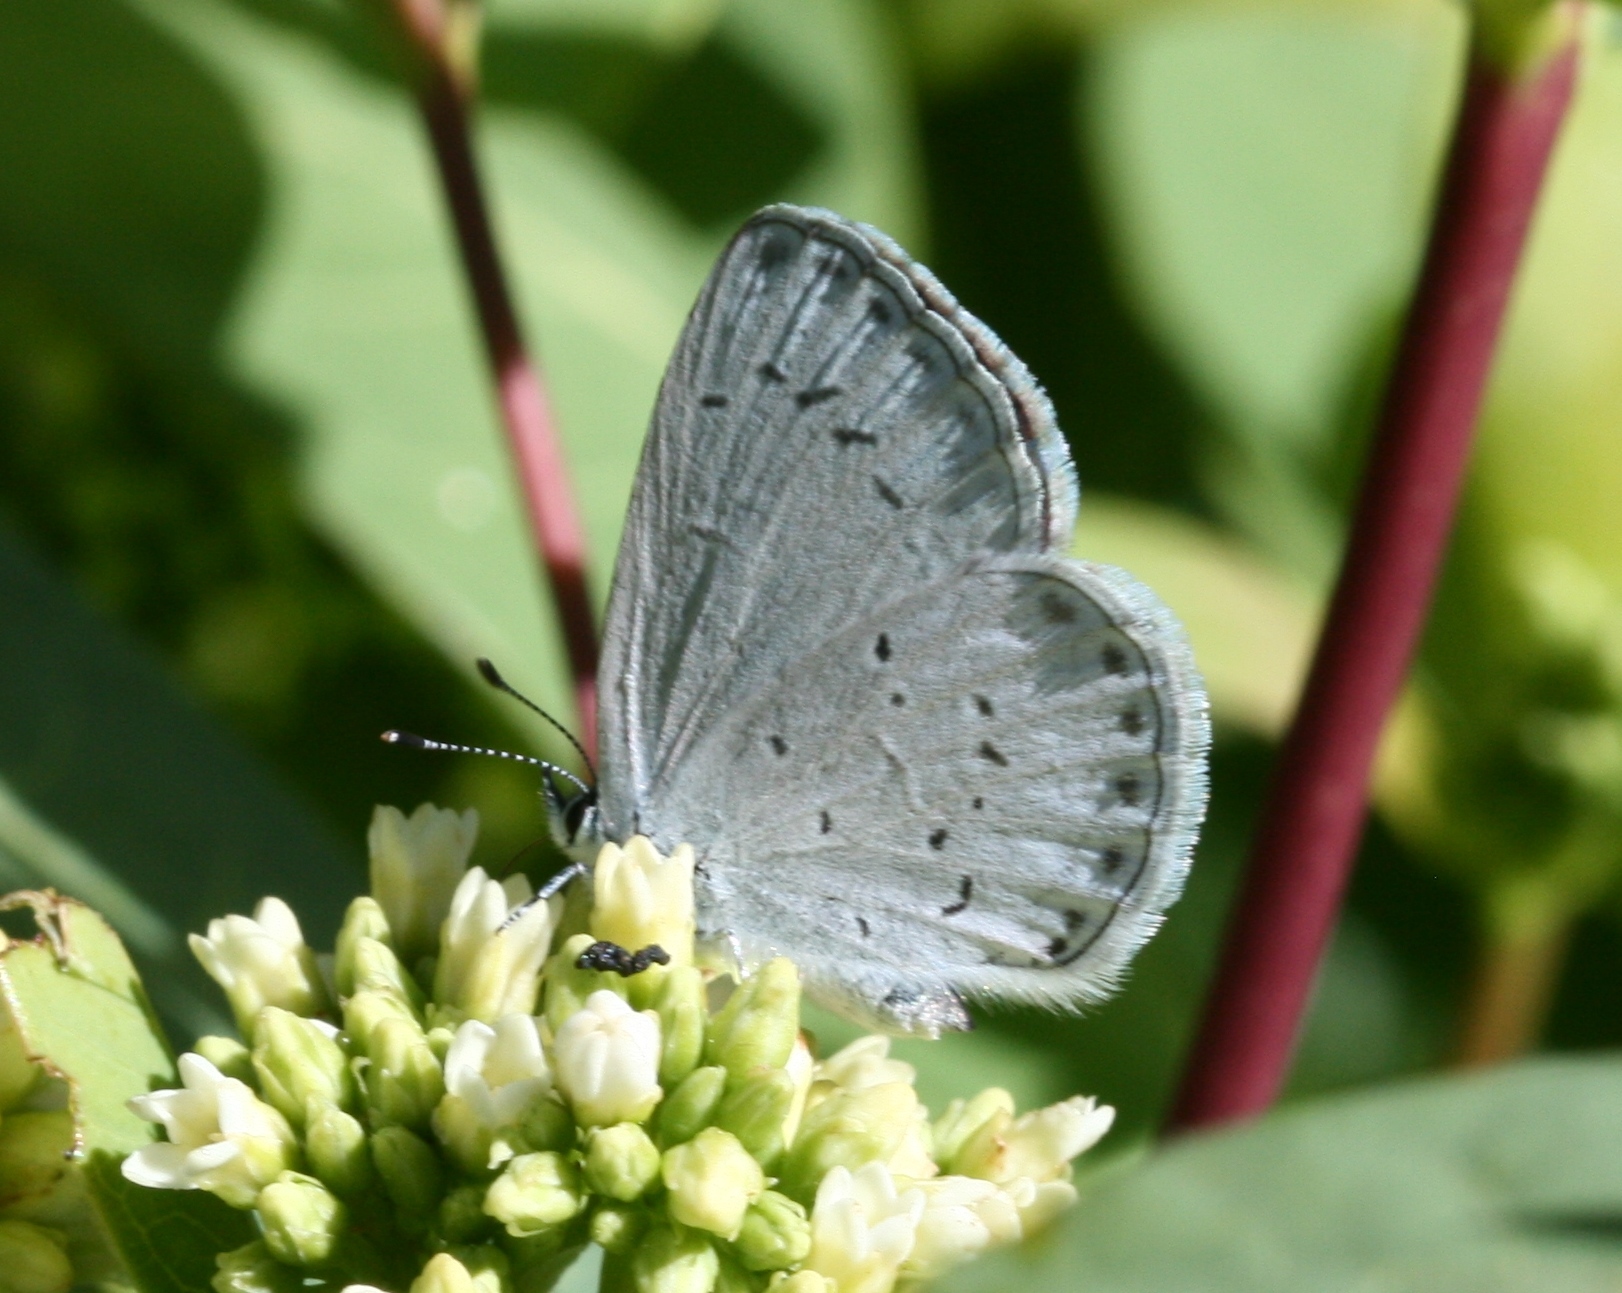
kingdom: Animalia
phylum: Arthropoda
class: Insecta
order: Lepidoptera
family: Lycaenidae
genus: Celastrina
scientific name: Celastrina ladon
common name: Spring azure
